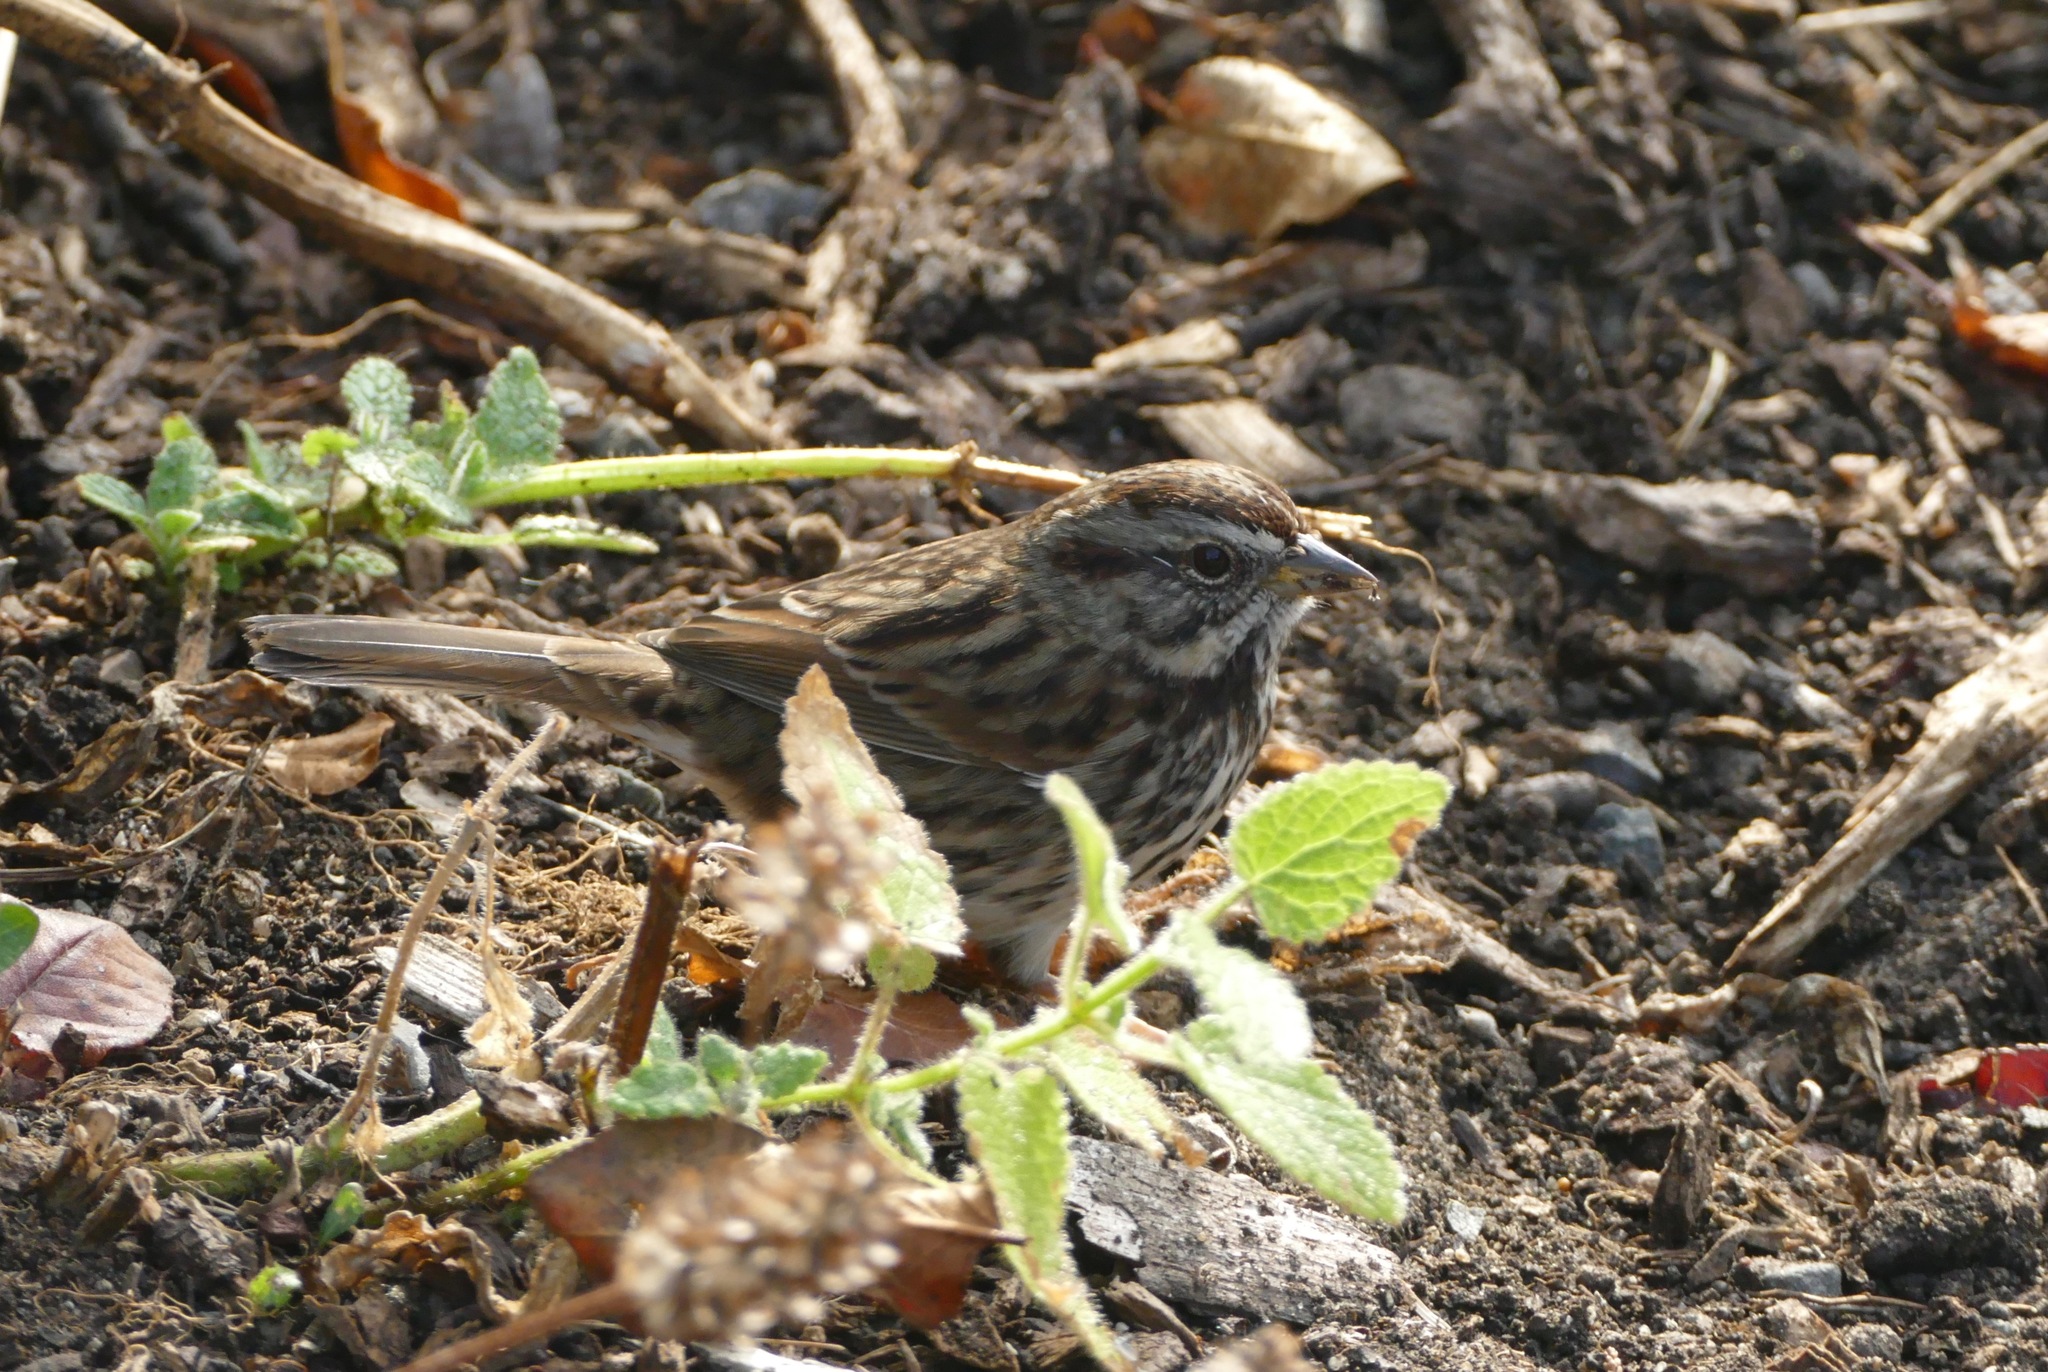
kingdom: Animalia
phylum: Chordata
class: Aves
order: Passeriformes
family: Passerellidae
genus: Melospiza
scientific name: Melospiza melodia
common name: Song sparrow
